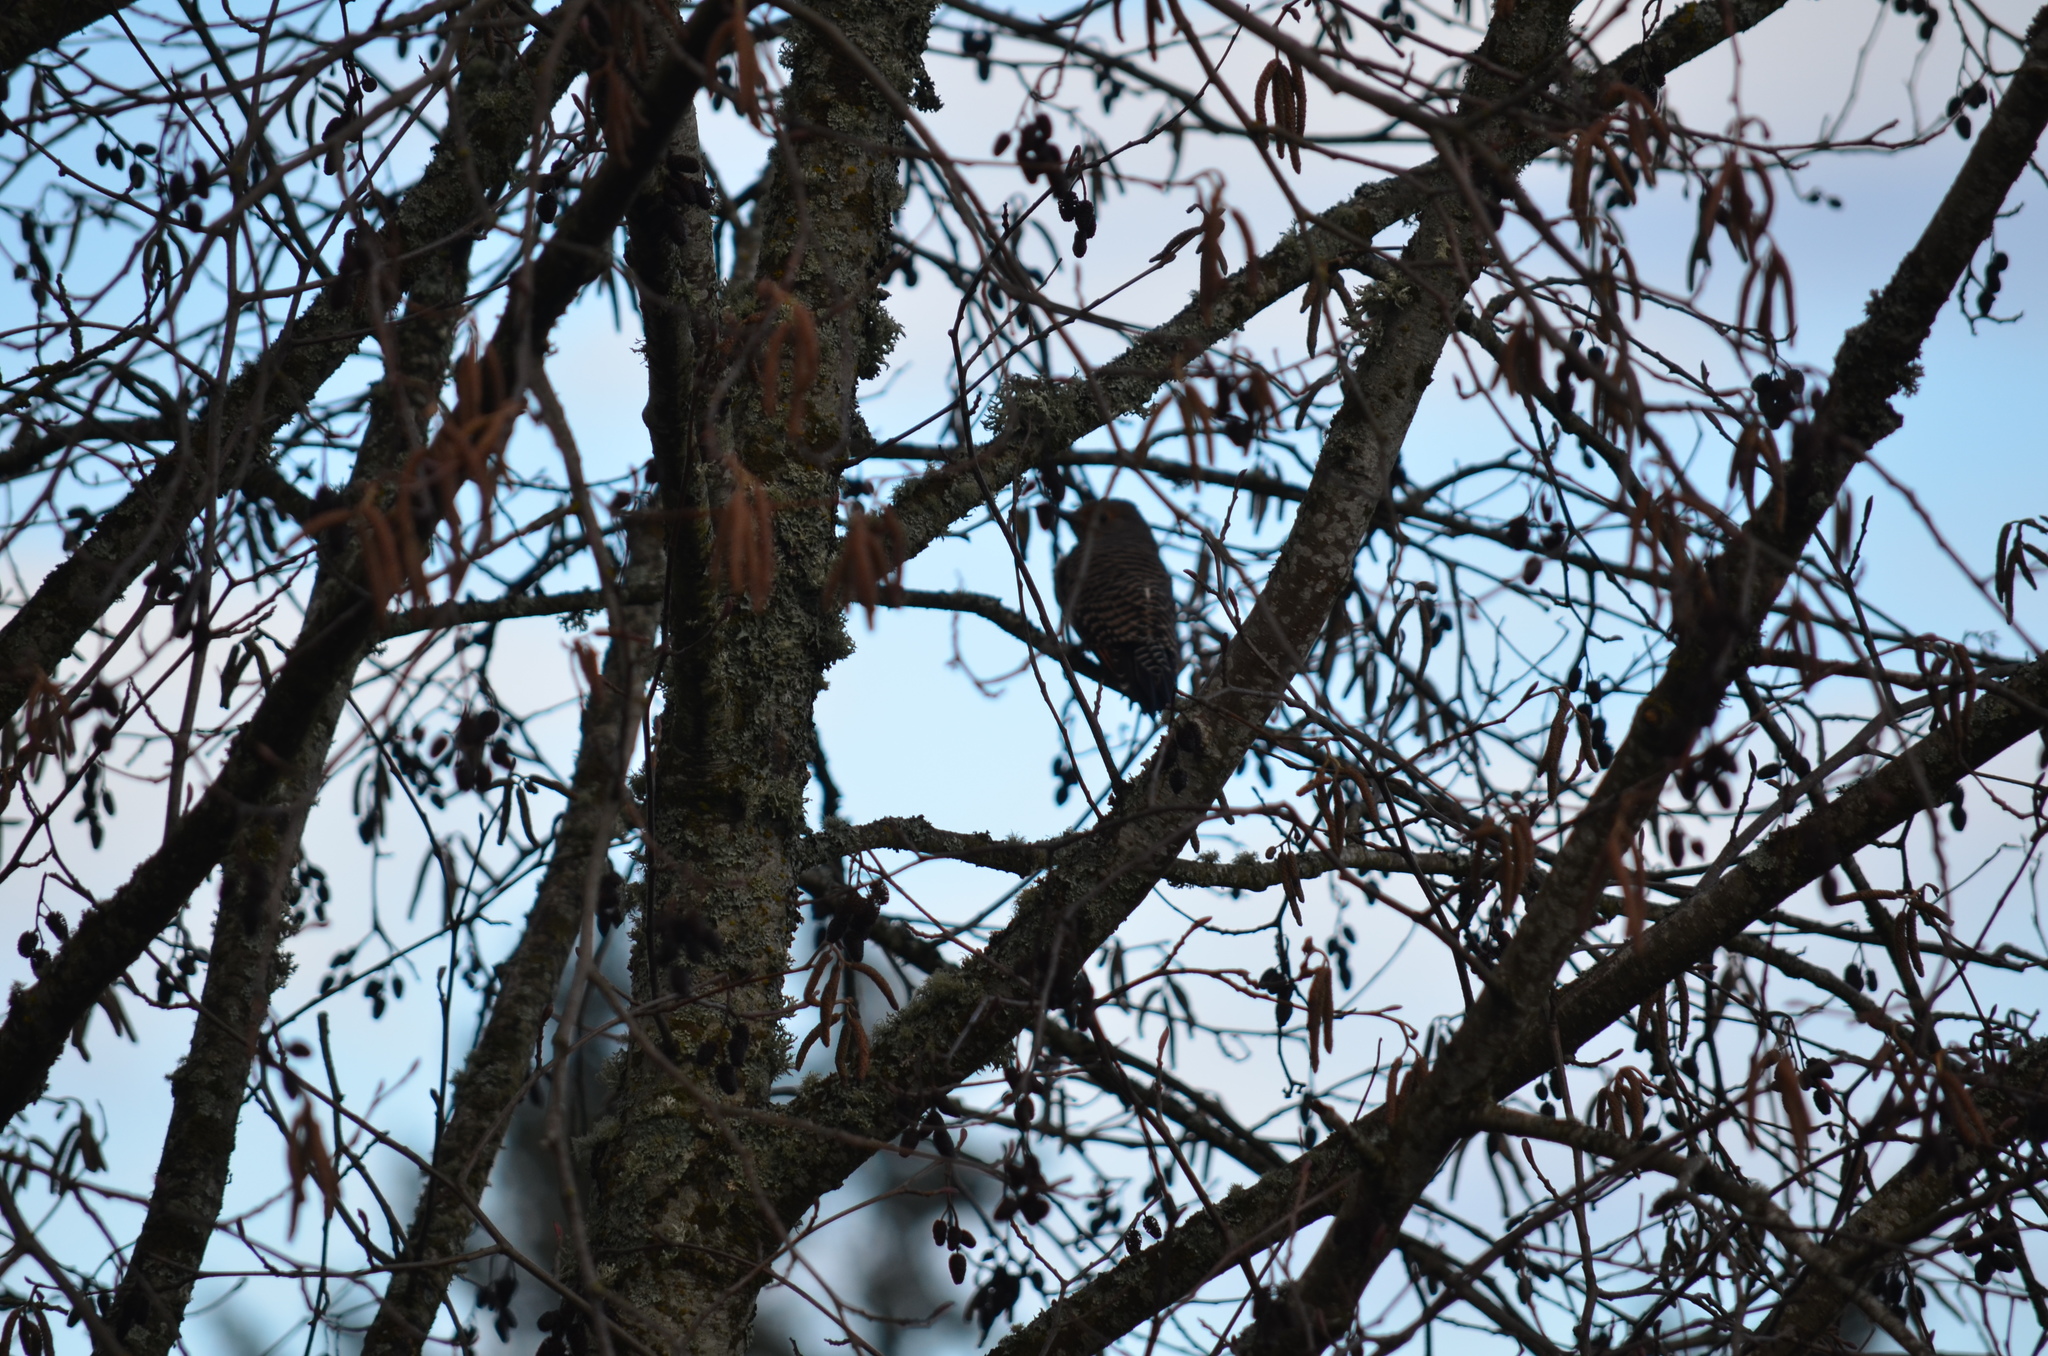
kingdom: Animalia
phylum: Chordata
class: Aves
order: Piciformes
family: Picidae
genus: Colaptes
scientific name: Colaptes auratus
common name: Northern flicker
